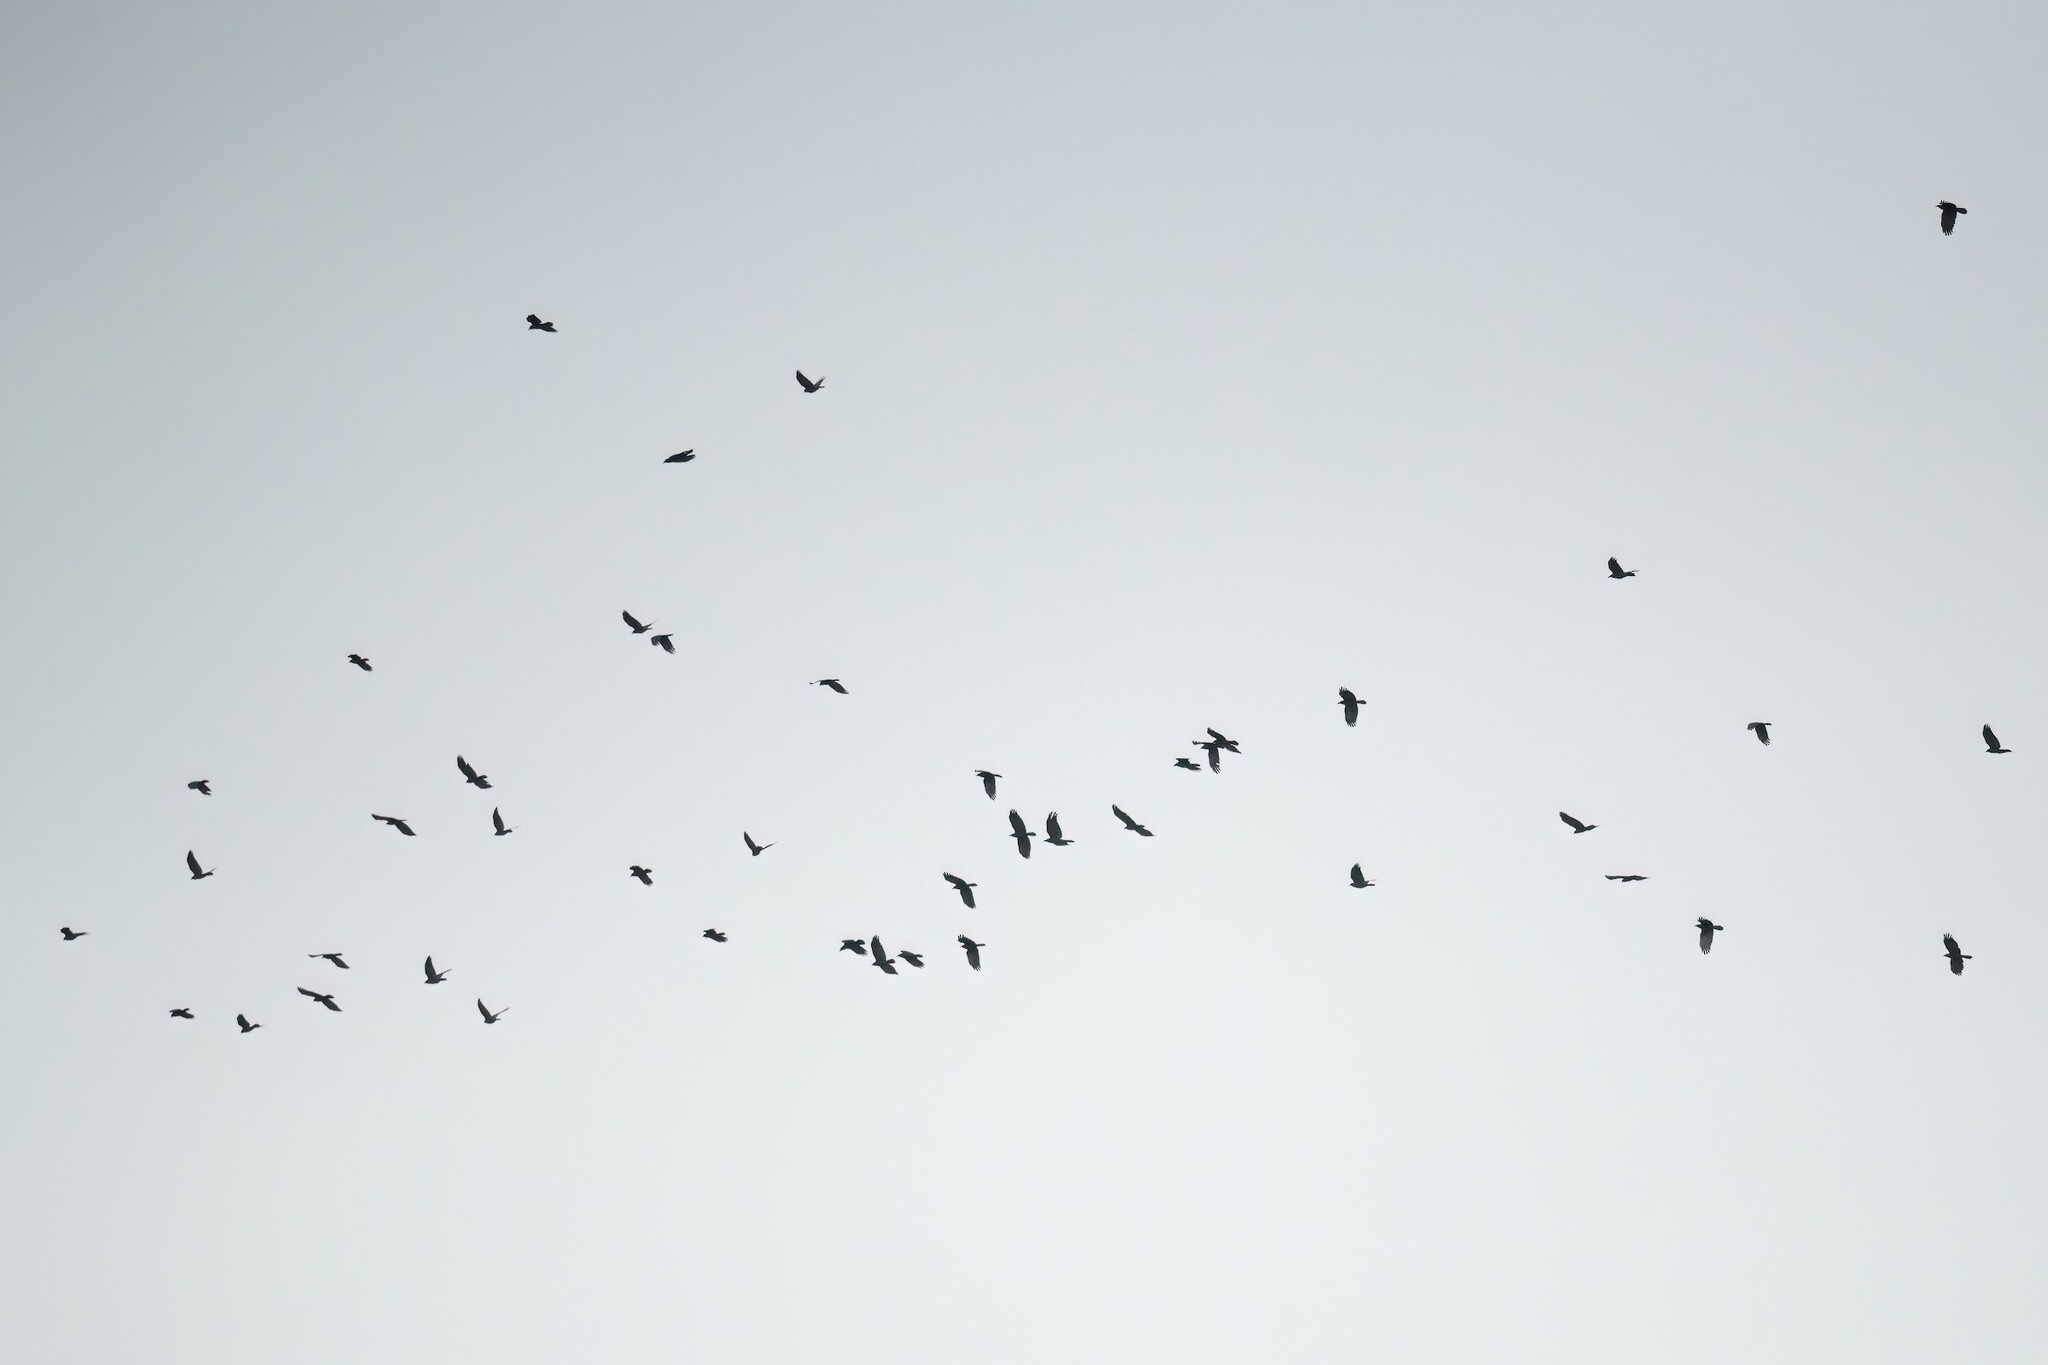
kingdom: Animalia
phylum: Chordata
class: Aves
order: Passeriformes
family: Corvidae
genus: Corvus
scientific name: Corvus ossifragus
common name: Fish crow
